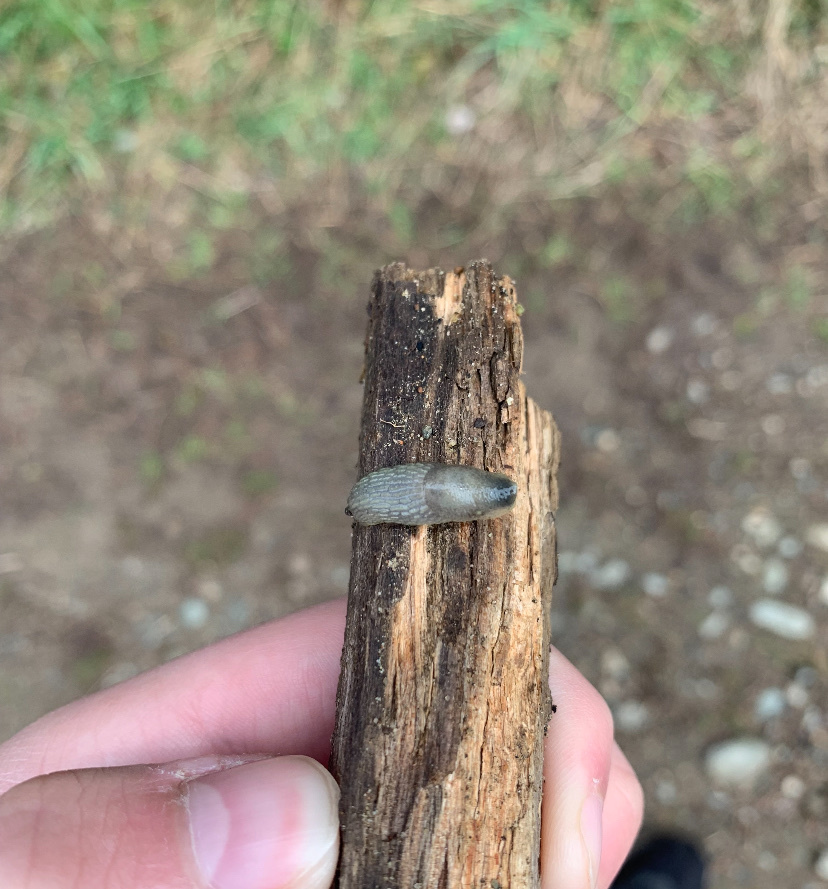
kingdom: Animalia
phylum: Mollusca
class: Gastropoda
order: Stylommatophora
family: Arionidae
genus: Arion
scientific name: Arion intermedius
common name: Hedgehog slug
